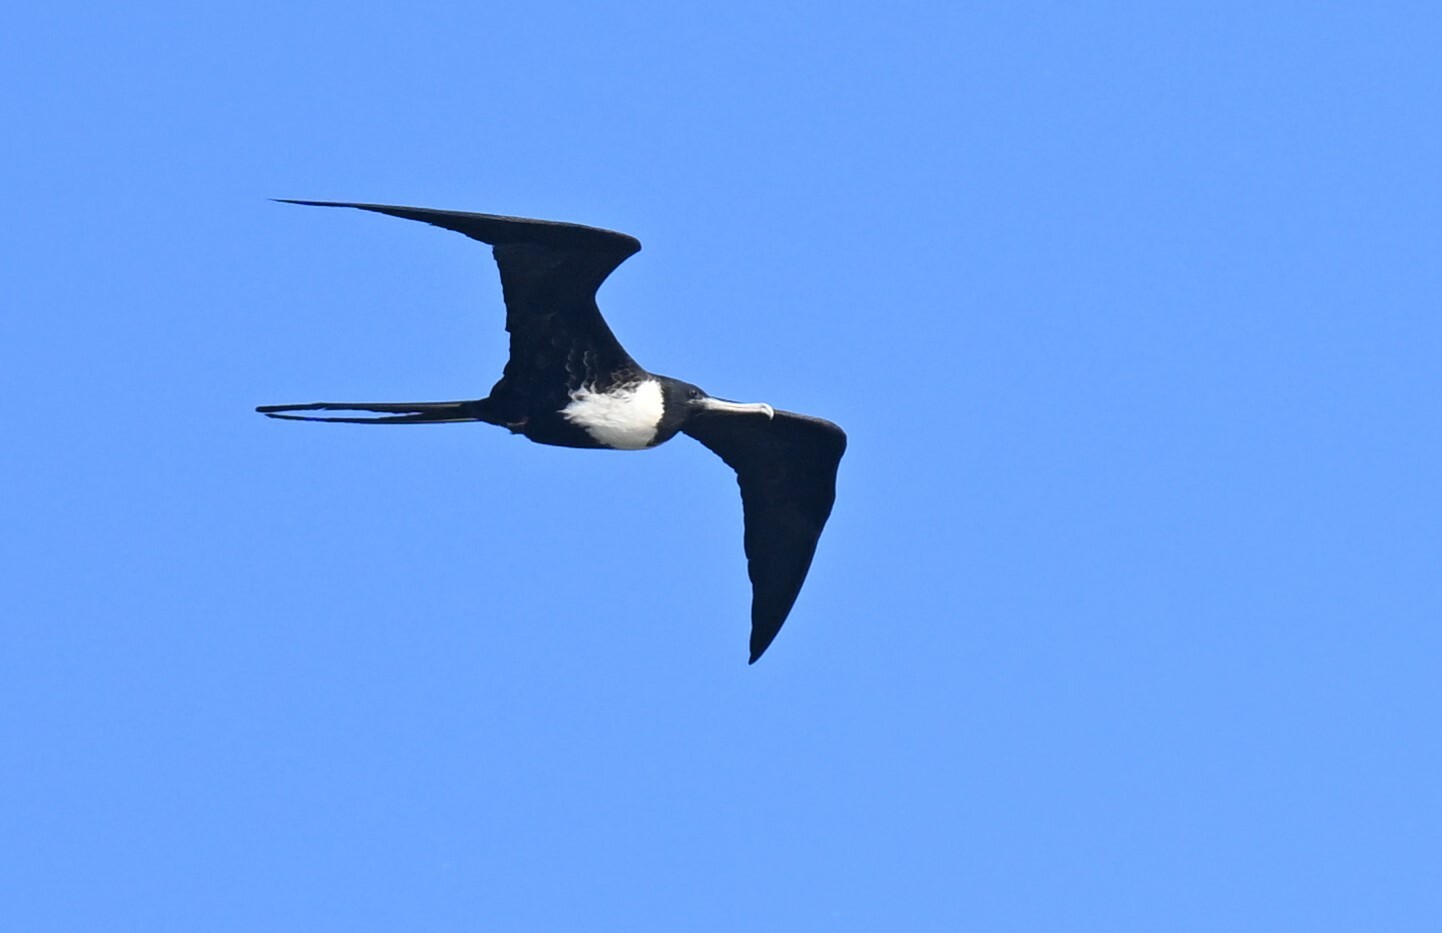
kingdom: Animalia
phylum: Chordata
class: Aves
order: Suliformes
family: Fregatidae
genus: Fregata
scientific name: Fregata magnificens
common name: Magnificent frigatebird
